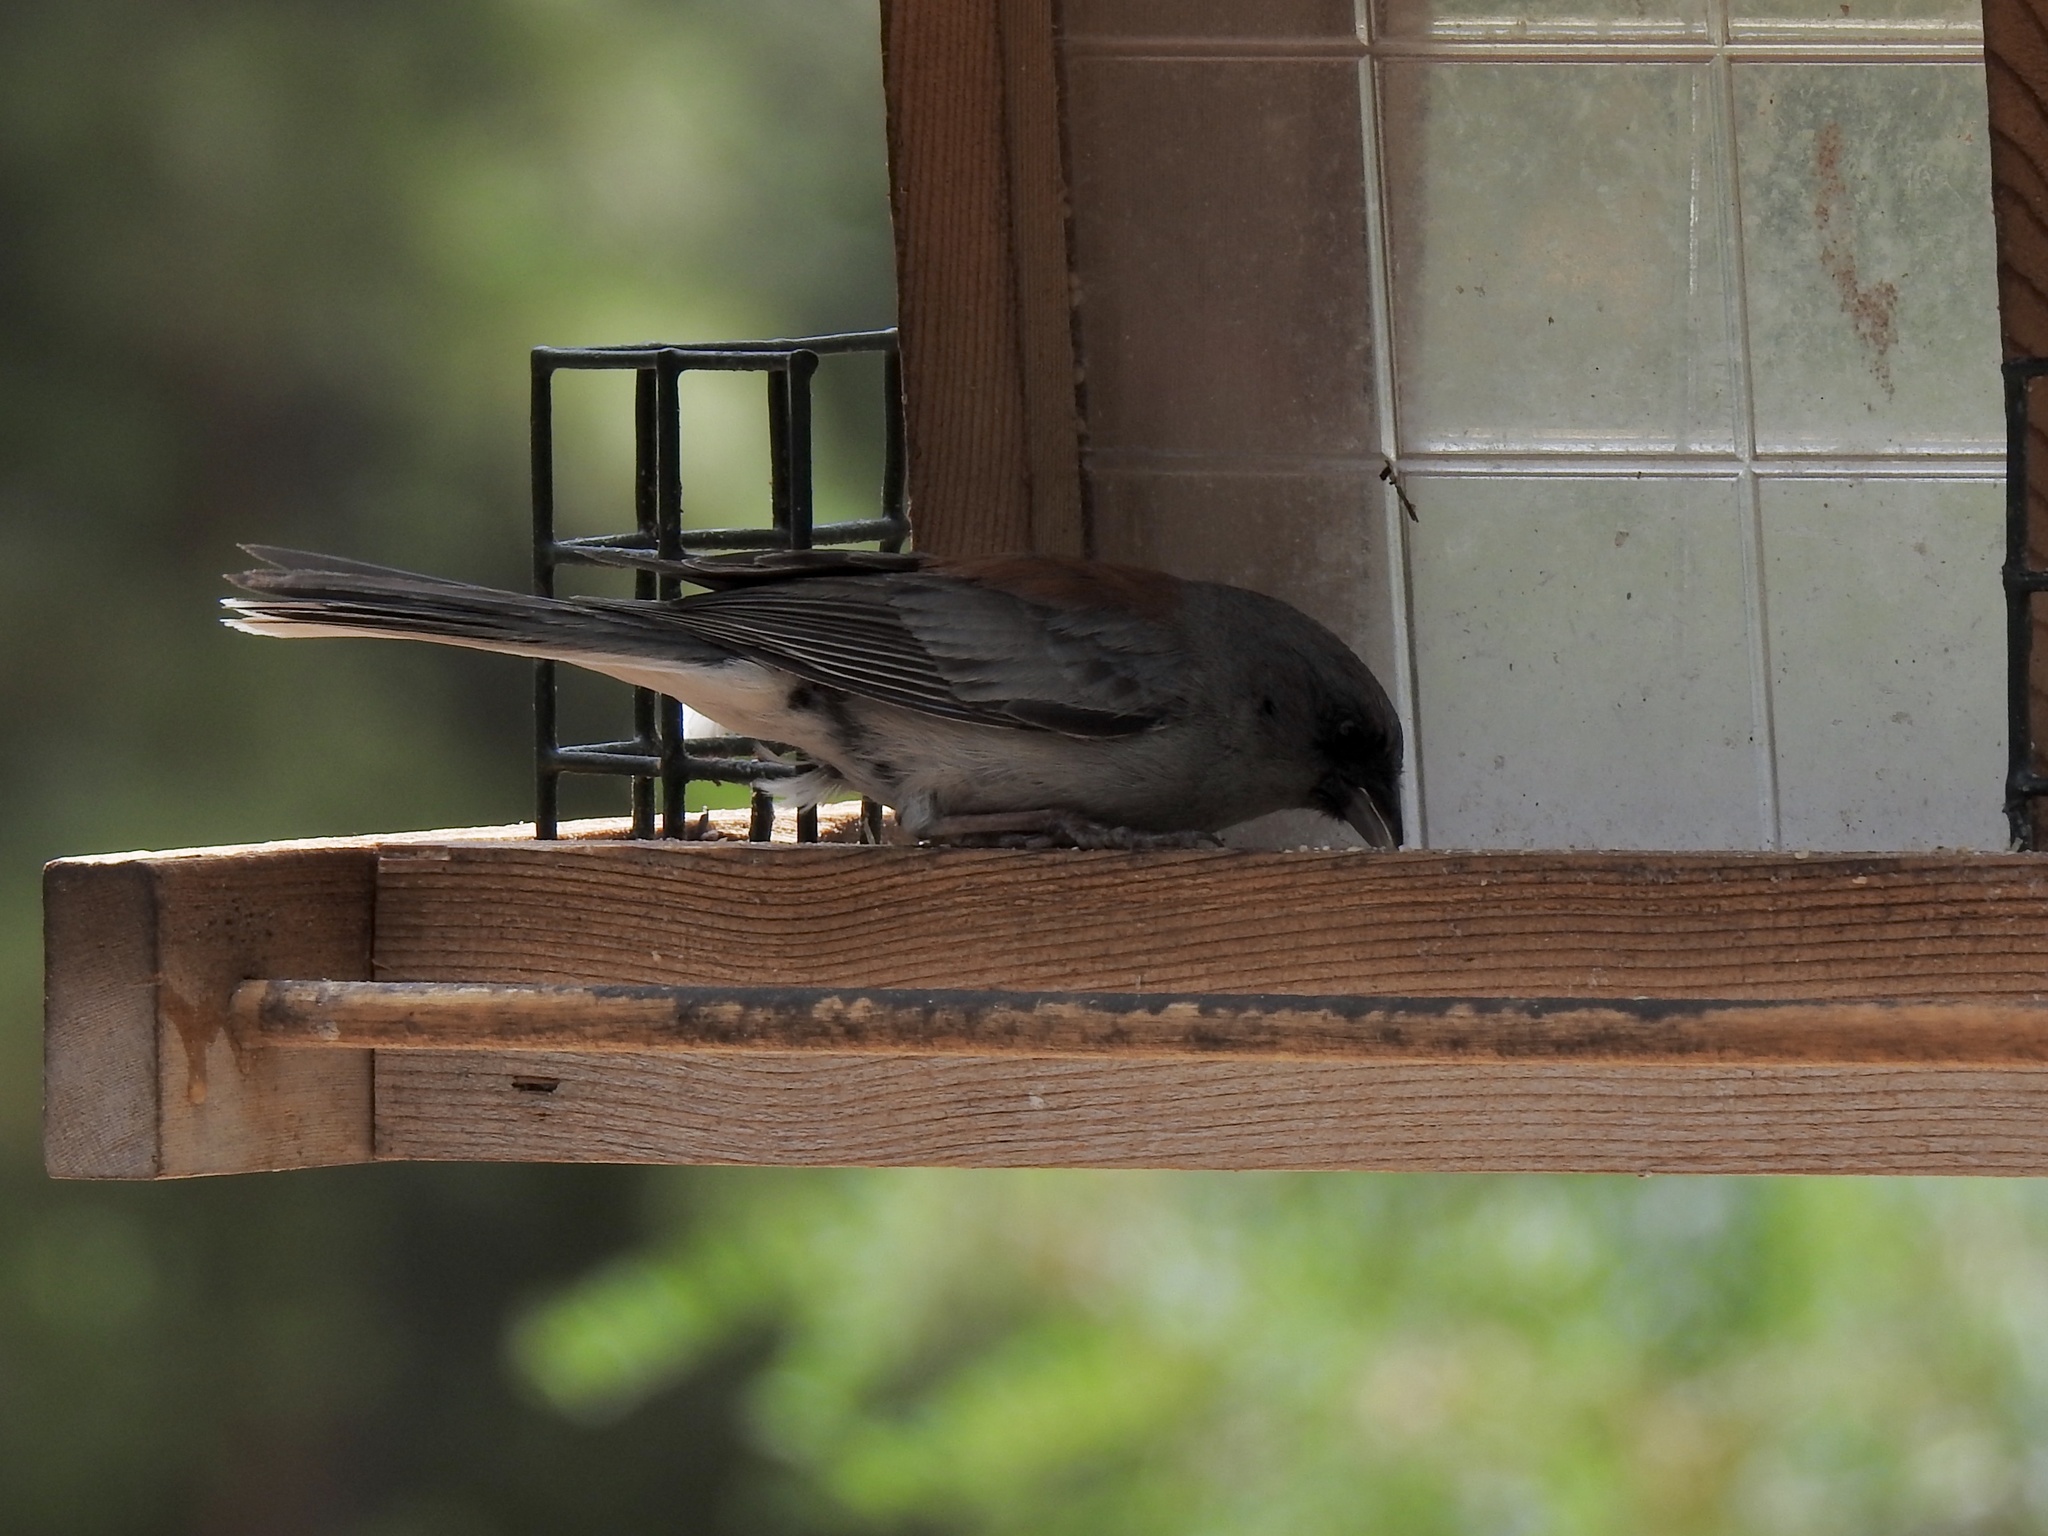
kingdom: Animalia
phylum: Chordata
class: Aves
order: Passeriformes
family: Passerellidae
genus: Junco
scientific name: Junco hyemalis
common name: Dark-eyed junco
